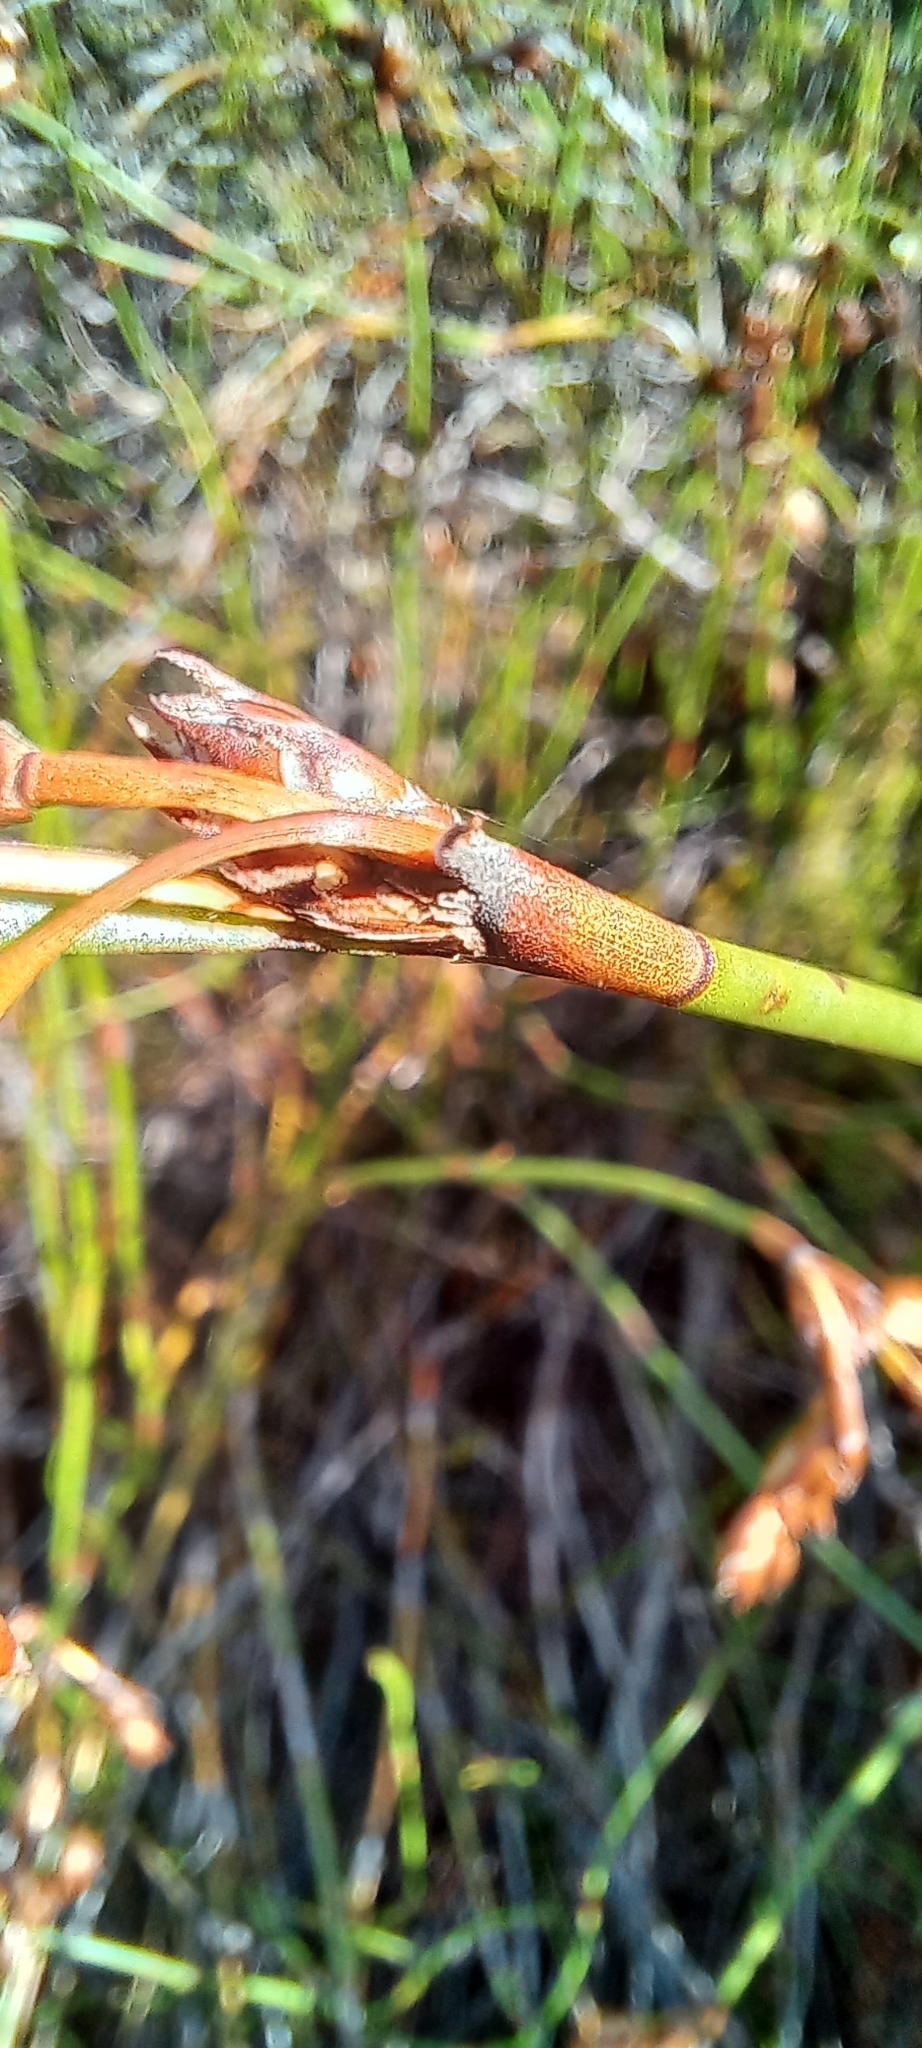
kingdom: Plantae
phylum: Tracheophyta
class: Liliopsida
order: Poales
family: Restionaceae
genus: Restio
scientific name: Restio egregius
